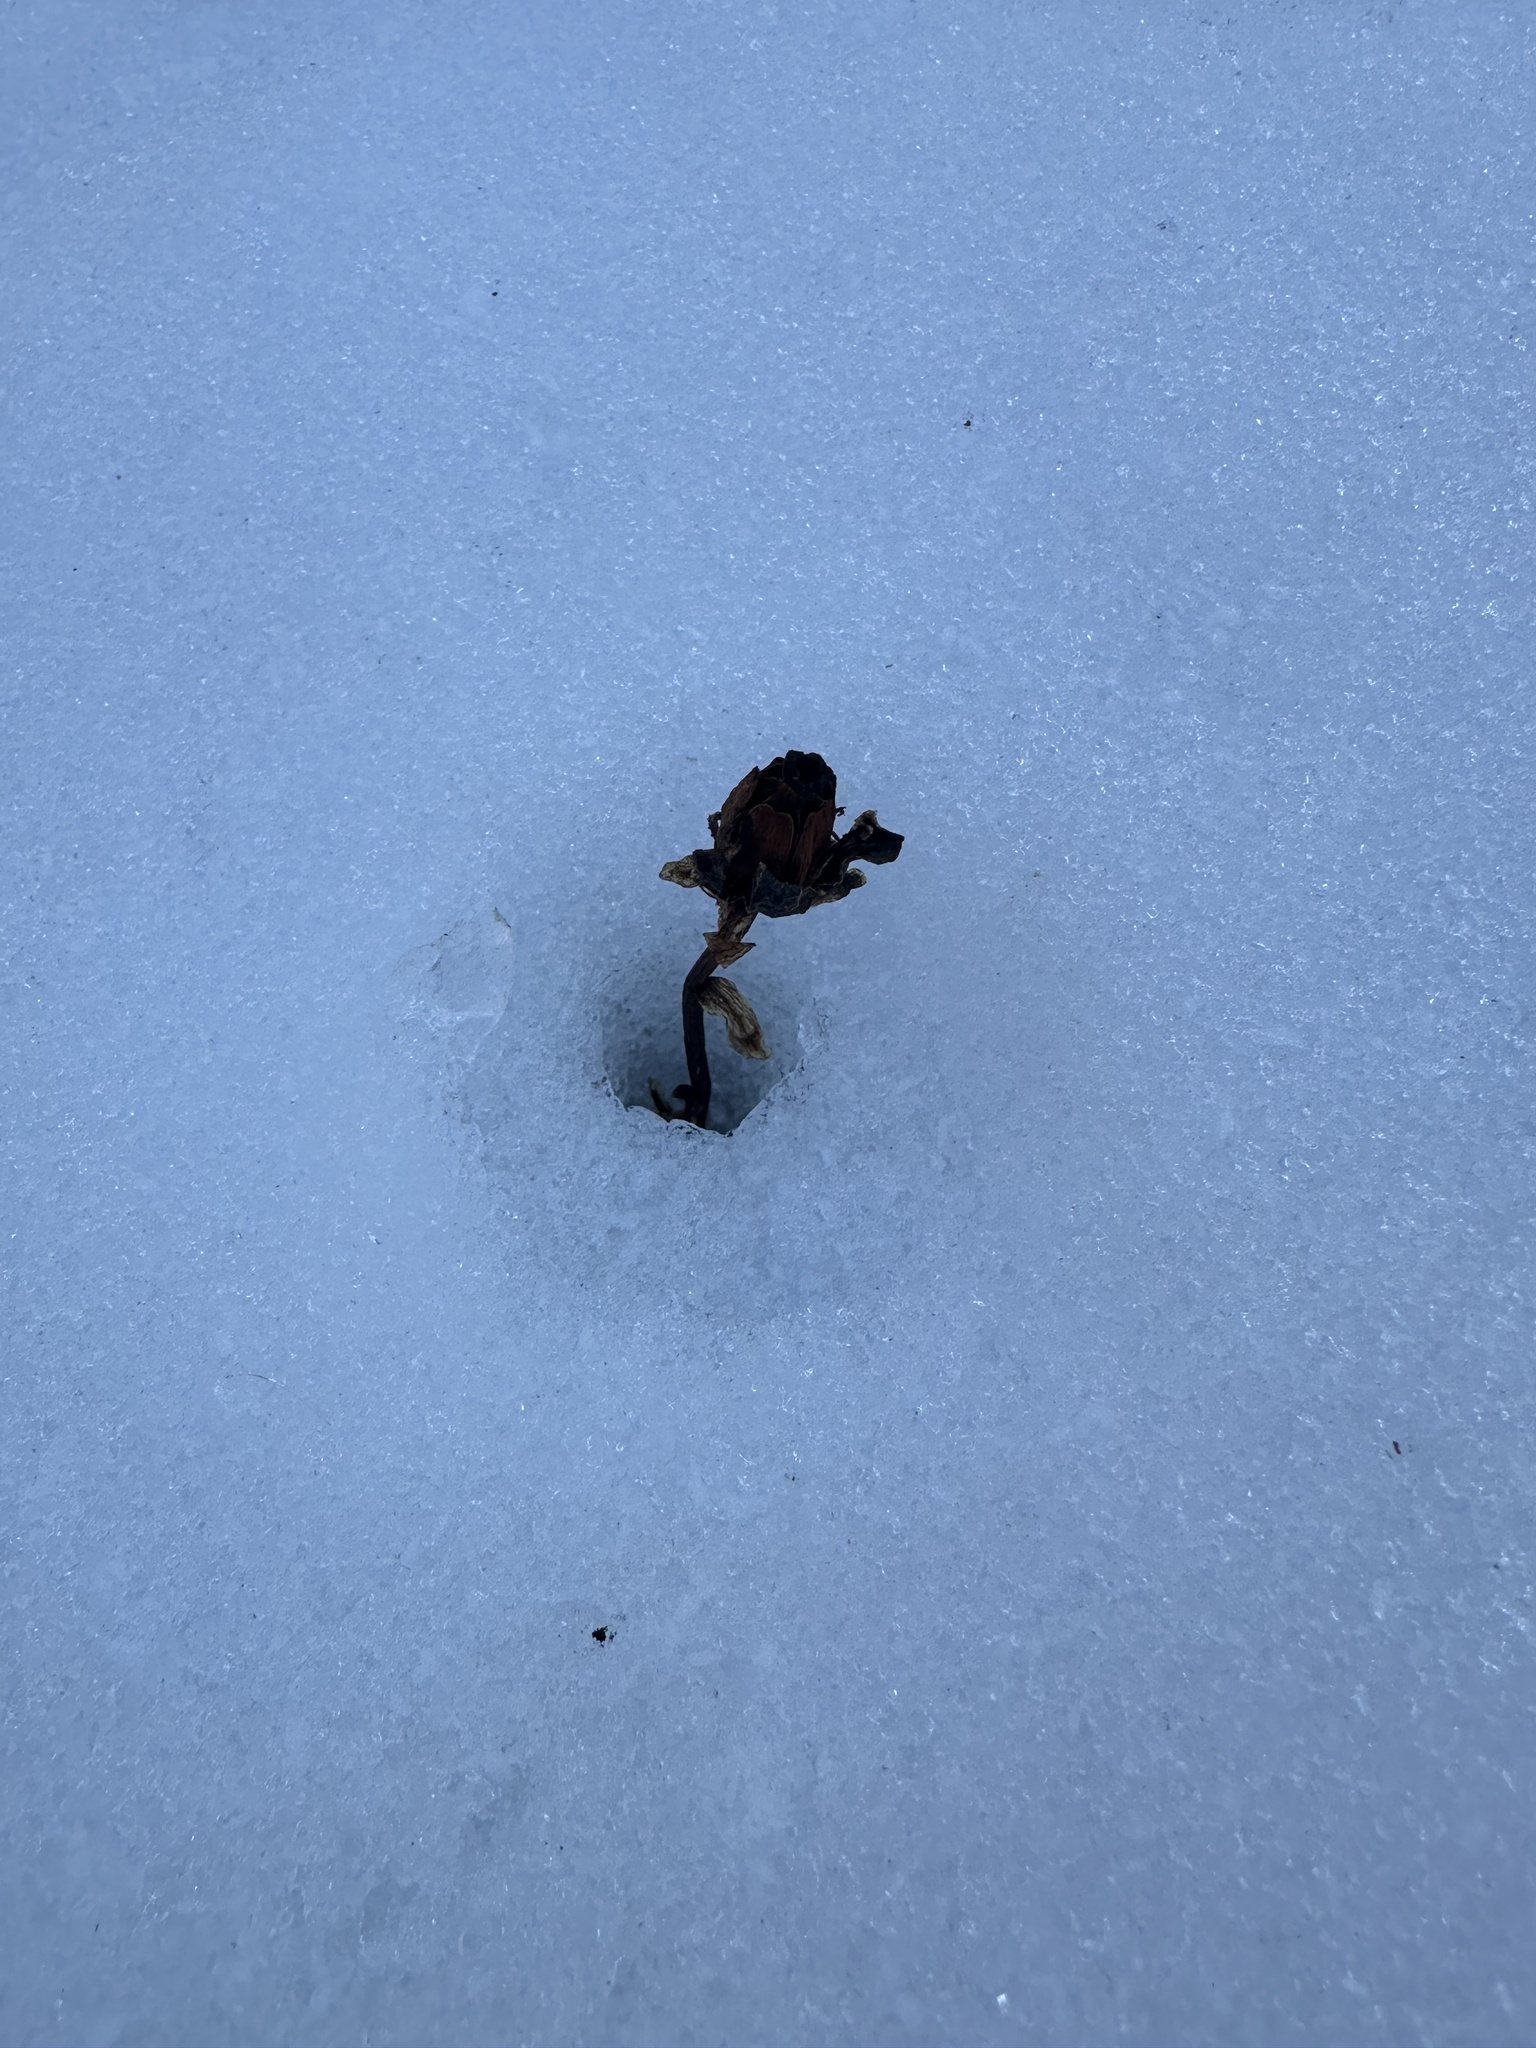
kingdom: Plantae
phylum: Tracheophyta
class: Magnoliopsida
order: Ericales
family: Ericaceae
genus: Monotropa
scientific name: Monotropa uniflora
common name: Convulsion root
